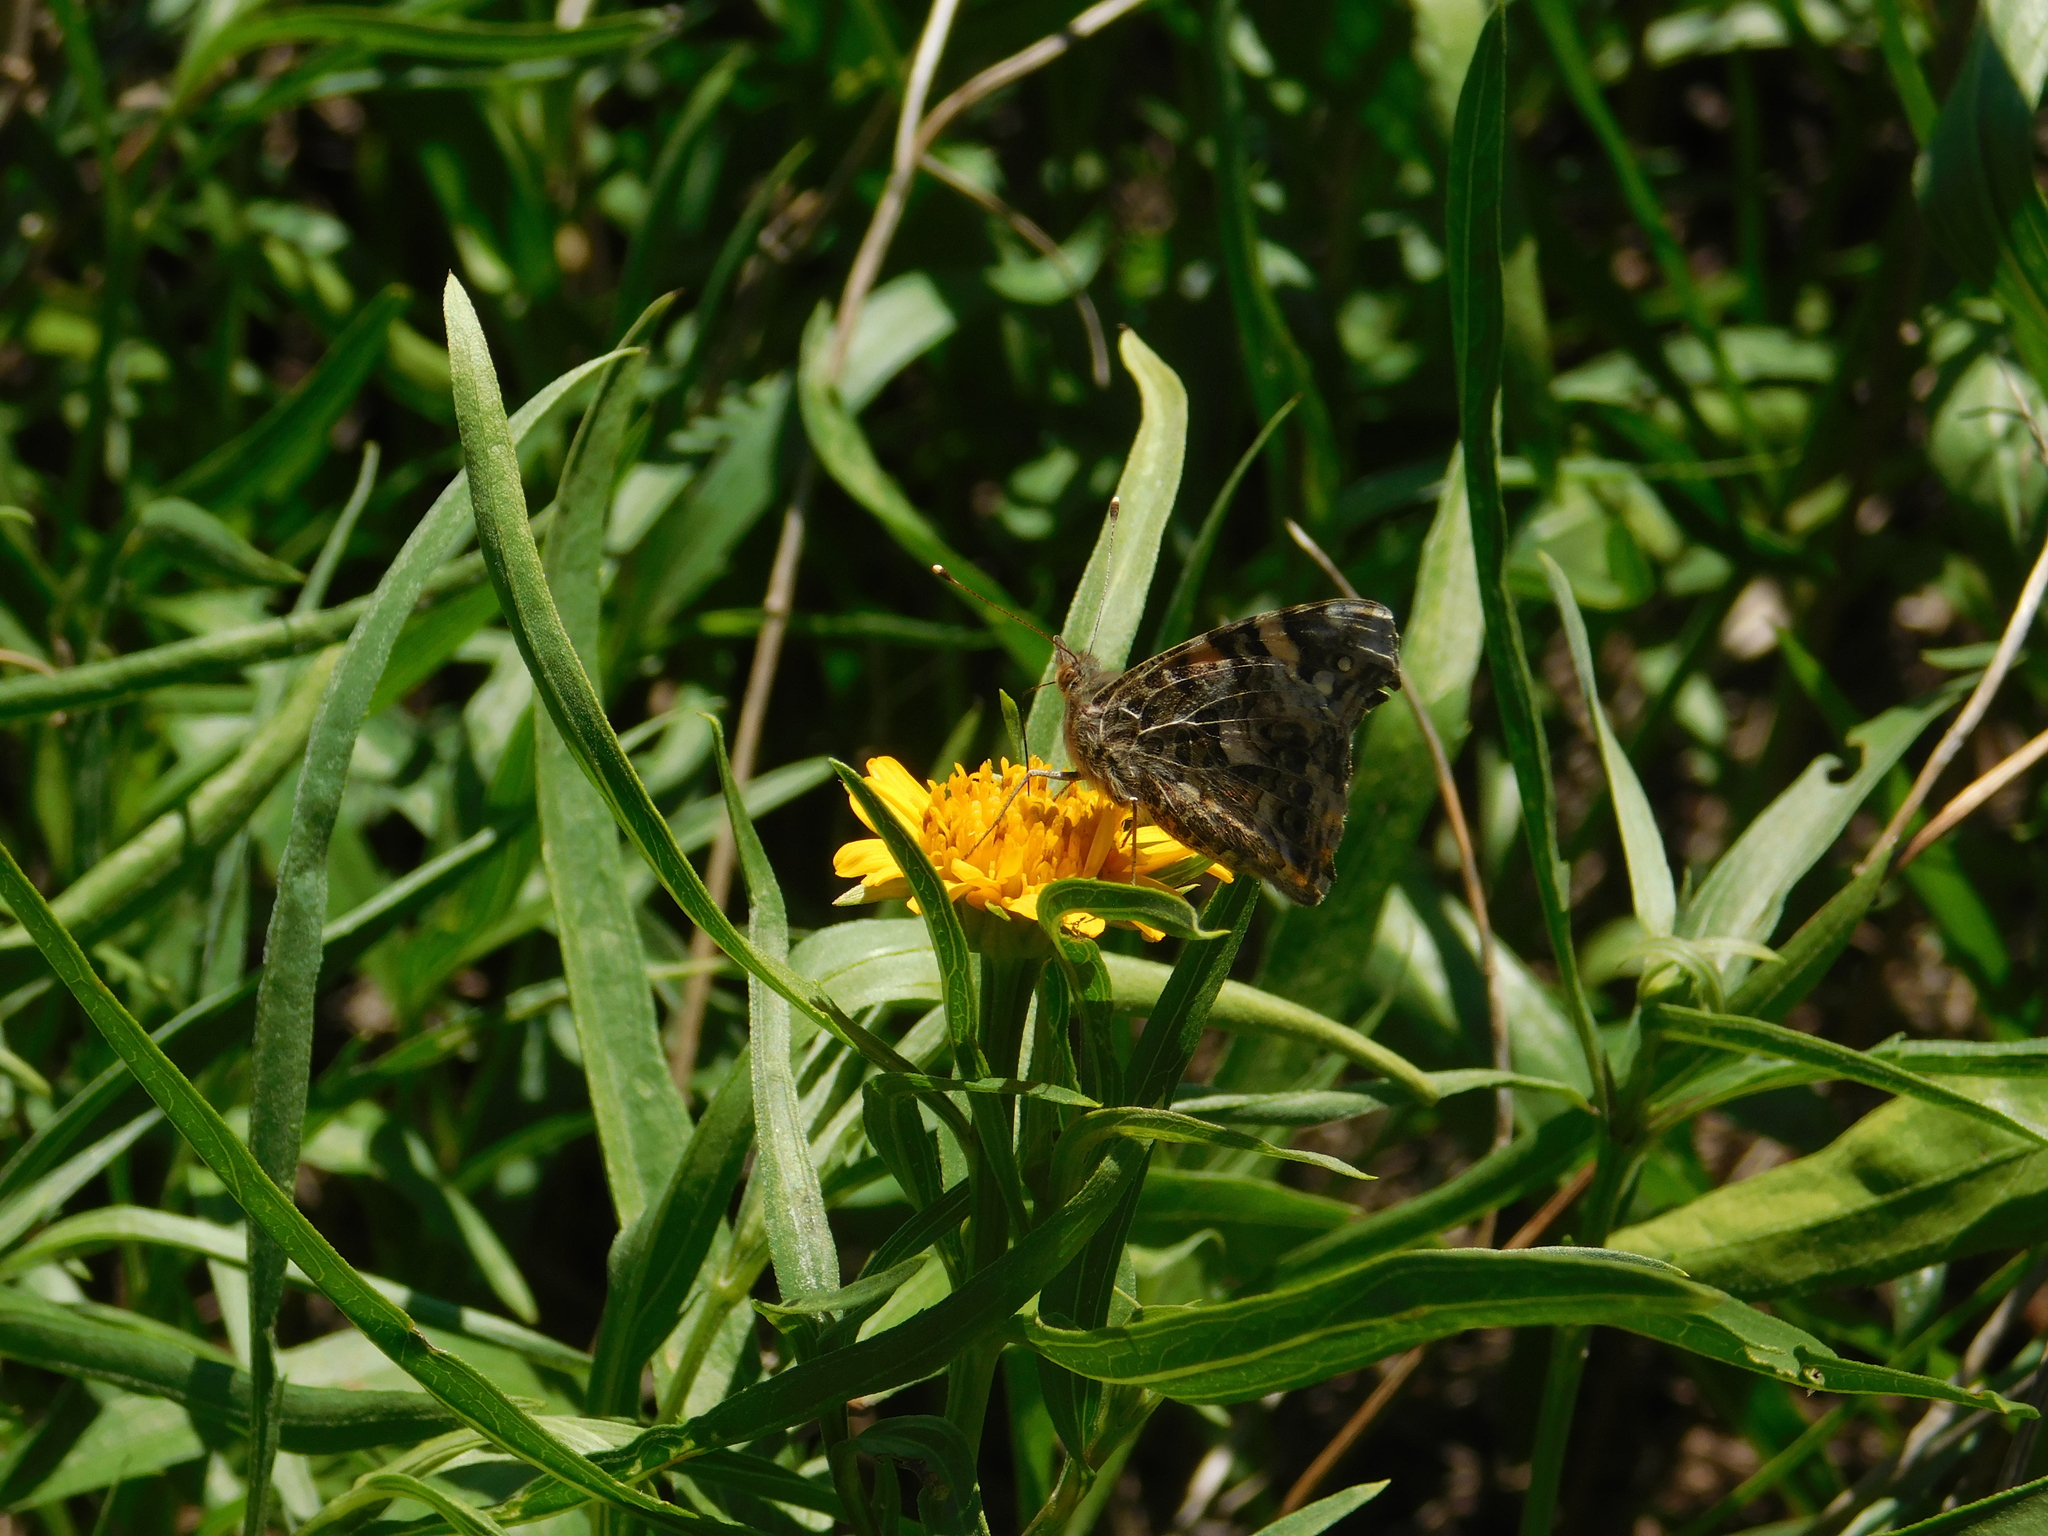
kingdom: Animalia
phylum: Arthropoda
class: Insecta
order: Lepidoptera
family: Nymphalidae
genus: Vanessa
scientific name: Vanessa carye
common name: Subtropical lady
